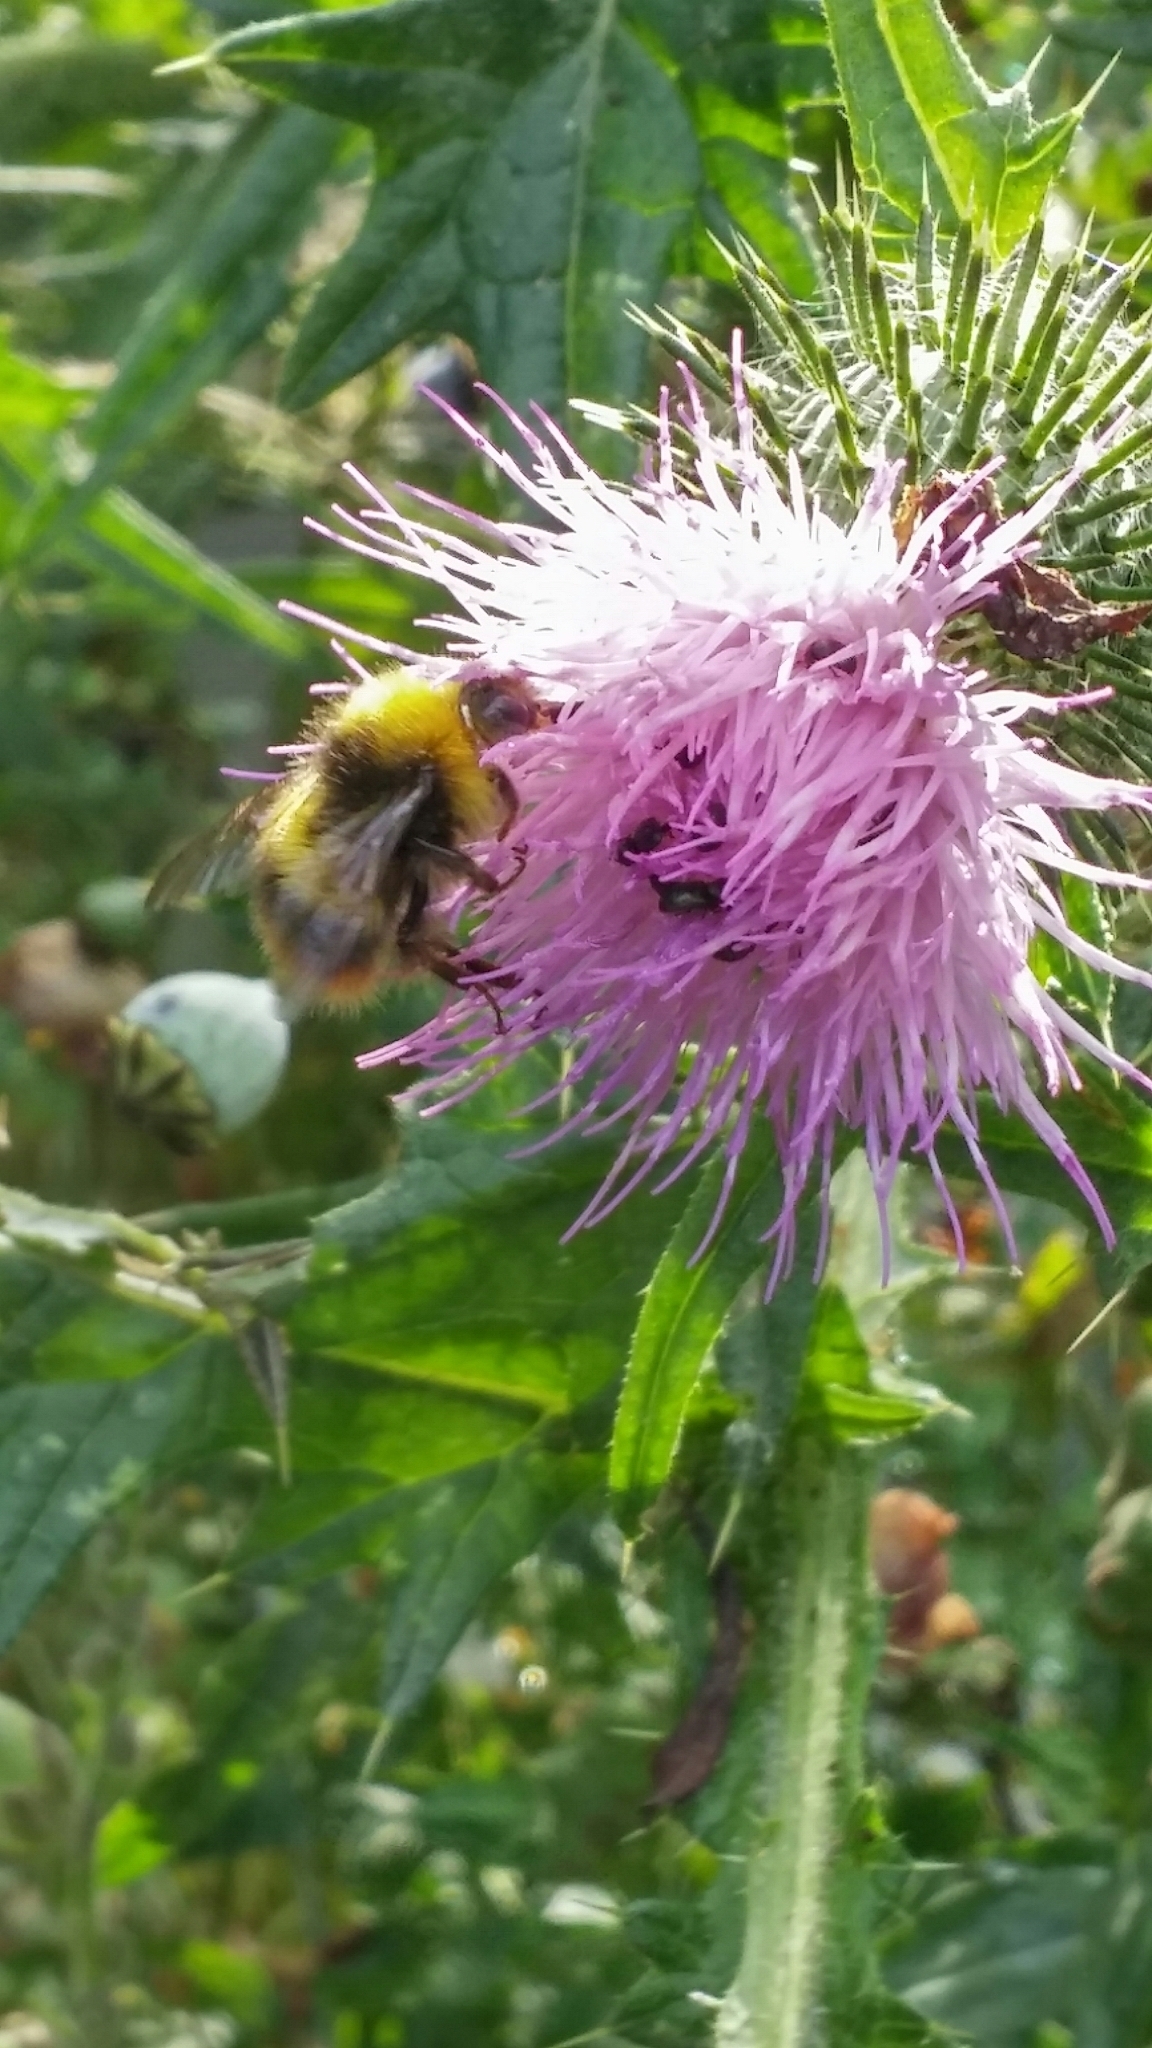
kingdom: Animalia
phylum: Arthropoda
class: Insecta
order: Hymenoptera
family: Apidae
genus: Bombus
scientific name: Bombus pratorum
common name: Early humble-bee
